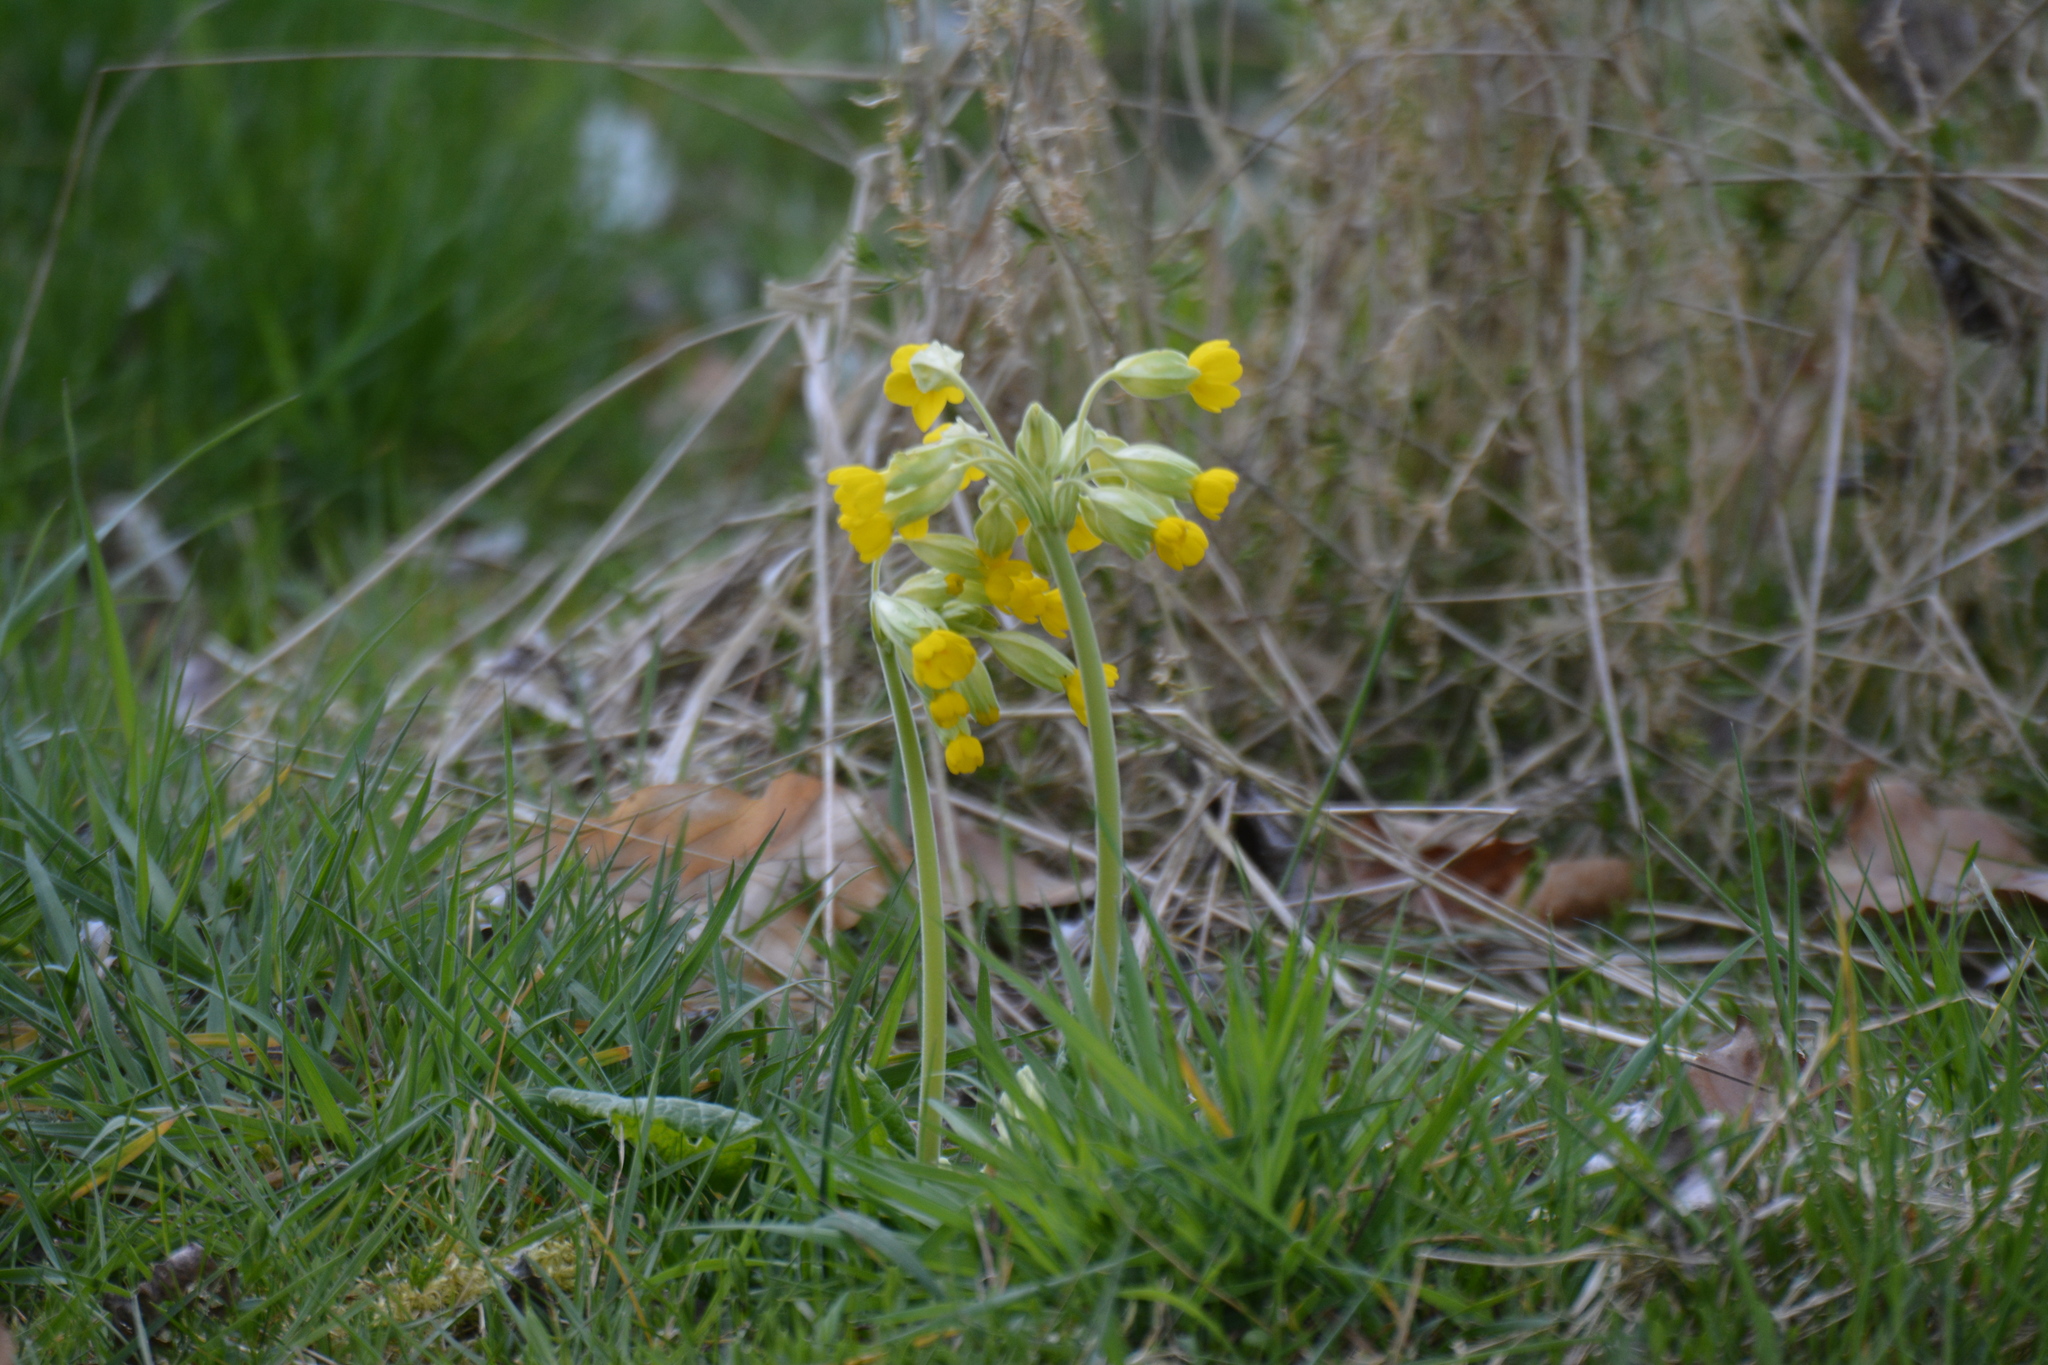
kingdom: Plantae
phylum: Tracheophyta
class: Magnoliopsida
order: Ericales
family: Primulaceae
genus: Primula
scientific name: Primula veris
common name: Cowslip
